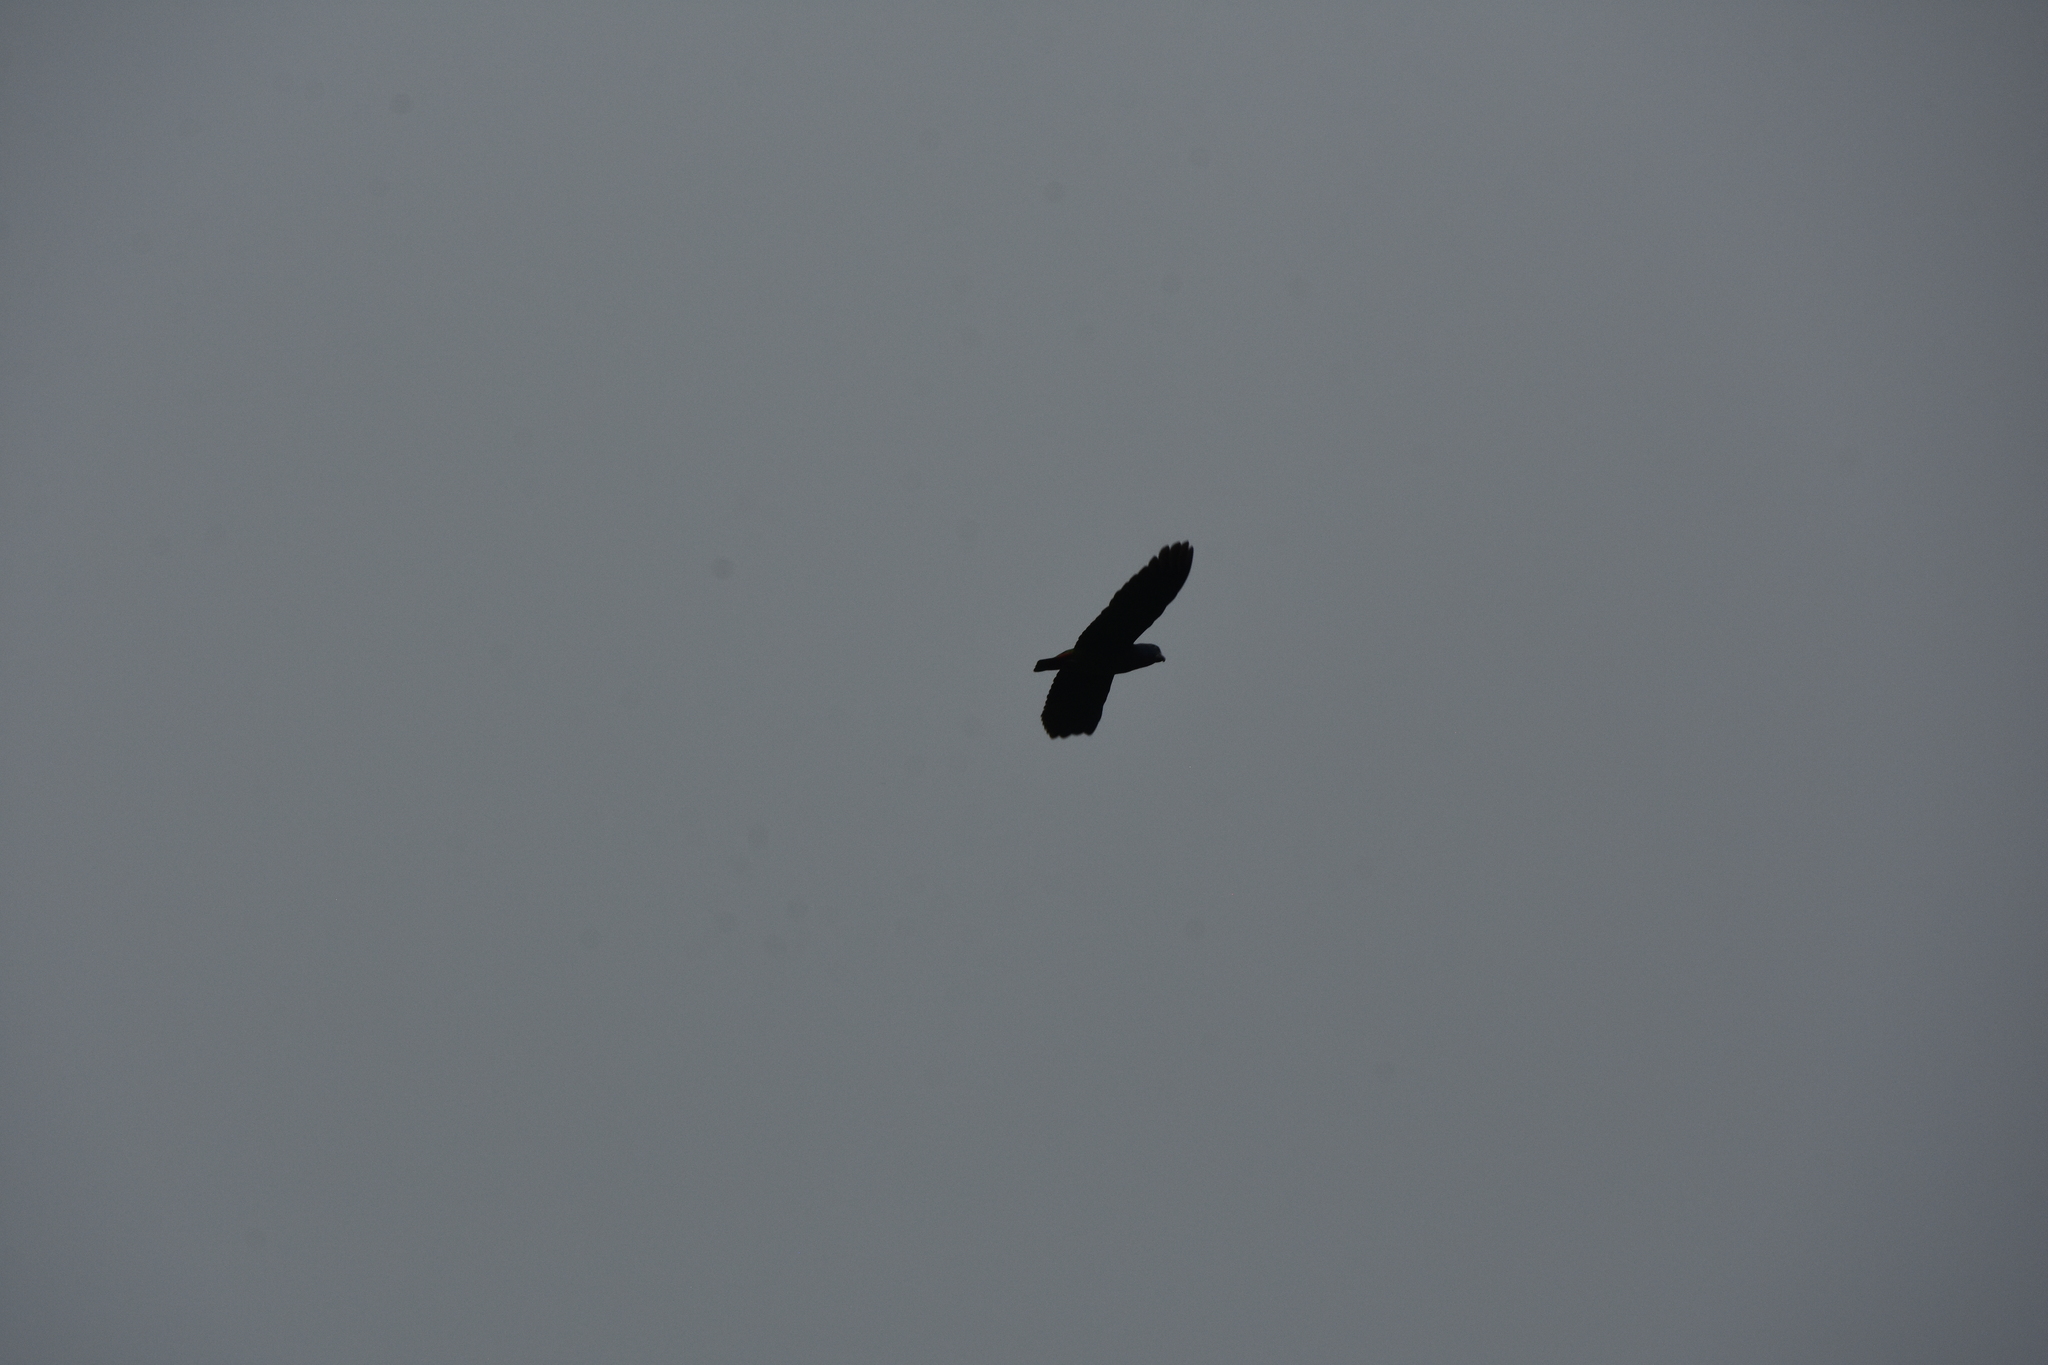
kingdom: Animalia
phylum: Chordata
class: Aves
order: Psittaciformes
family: Psittacidae
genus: Pionus
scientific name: Pionus menstruus
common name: Blue-headed parrot
